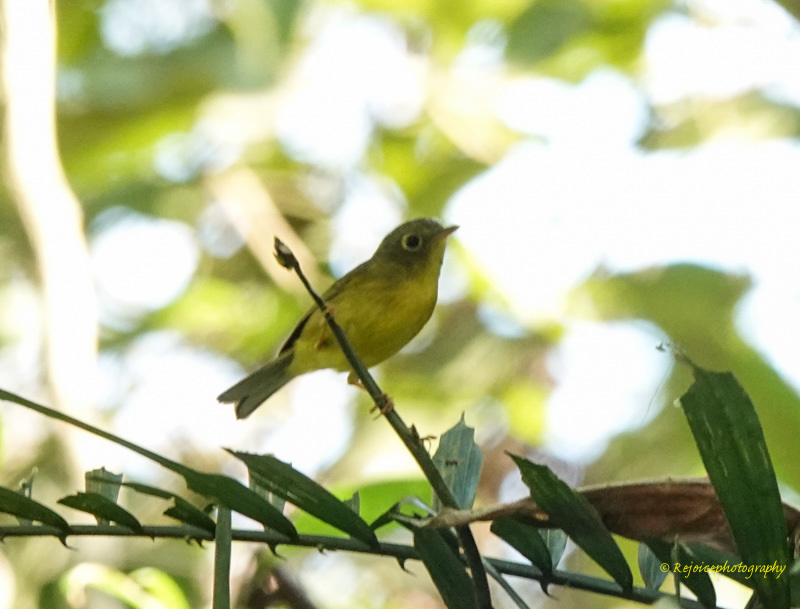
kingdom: Animalia
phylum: Chordata
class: Aves
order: Passeriformes
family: Phylloscopidae
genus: Seicercus
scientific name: Seicercus burkii
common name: Green-crowned warbler
